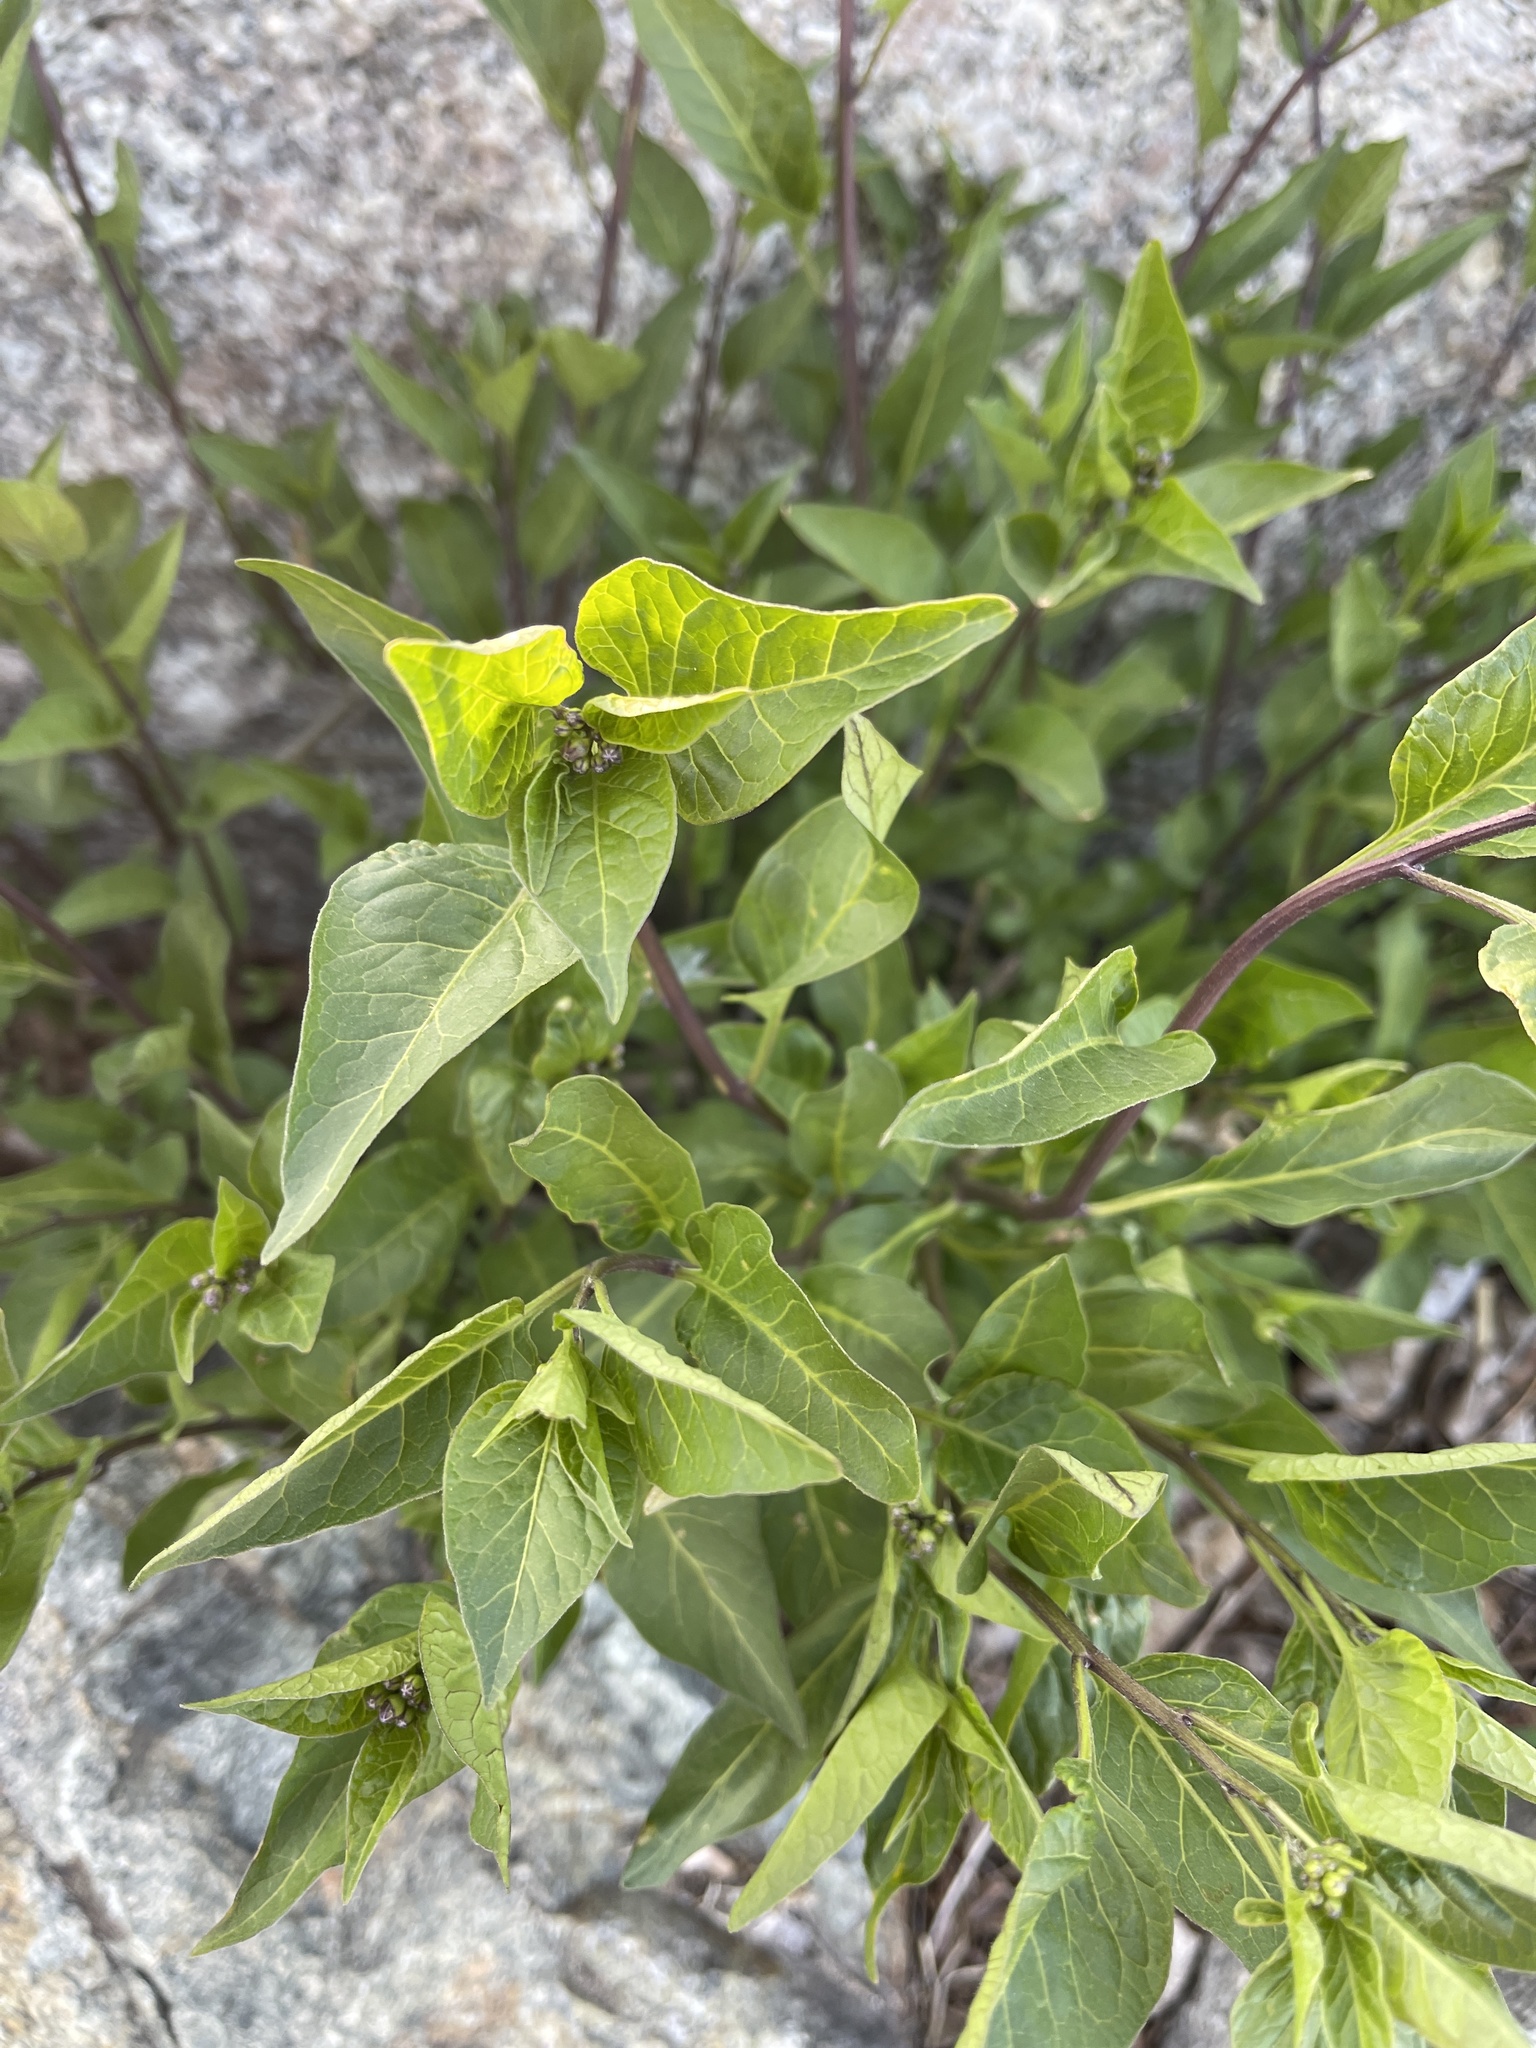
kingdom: Plantae
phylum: Tracheophyta
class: Magnoliopsida
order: Solanales
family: Solanaceae
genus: Solanum
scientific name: Solanum dulcamara
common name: Climbing nightshade
